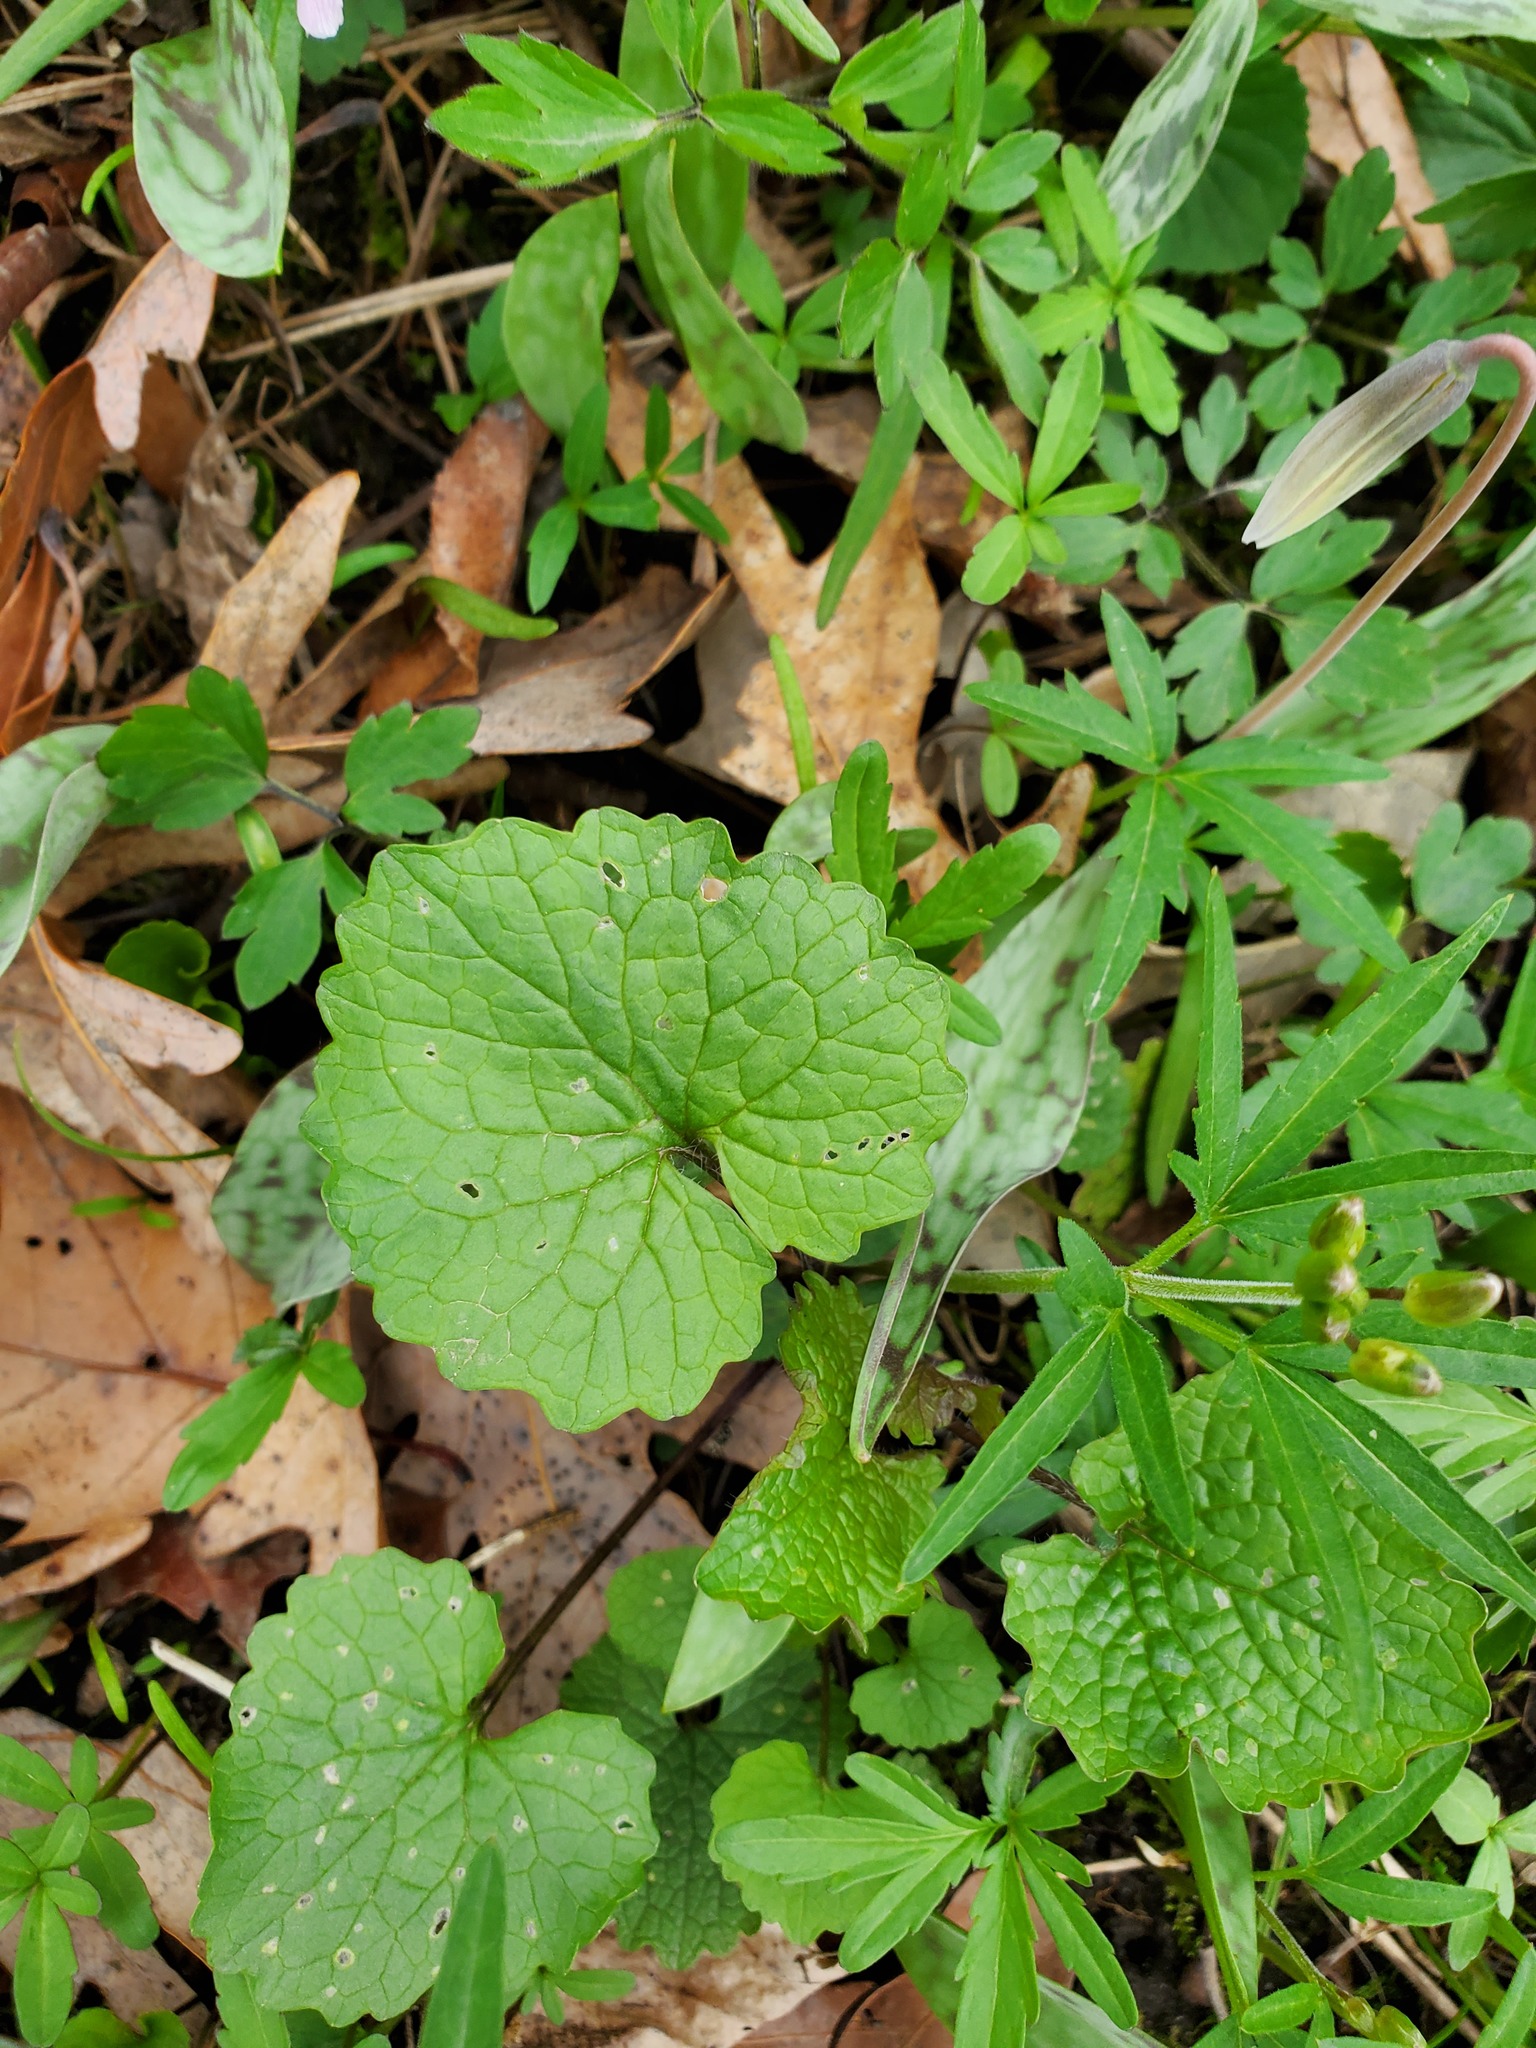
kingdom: Plantae
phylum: Tracheophyta
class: Magnoliopsida
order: Brassicales
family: Brassicaceae
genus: Alliaria
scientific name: Alliaria petiolata
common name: Garlic mustard
